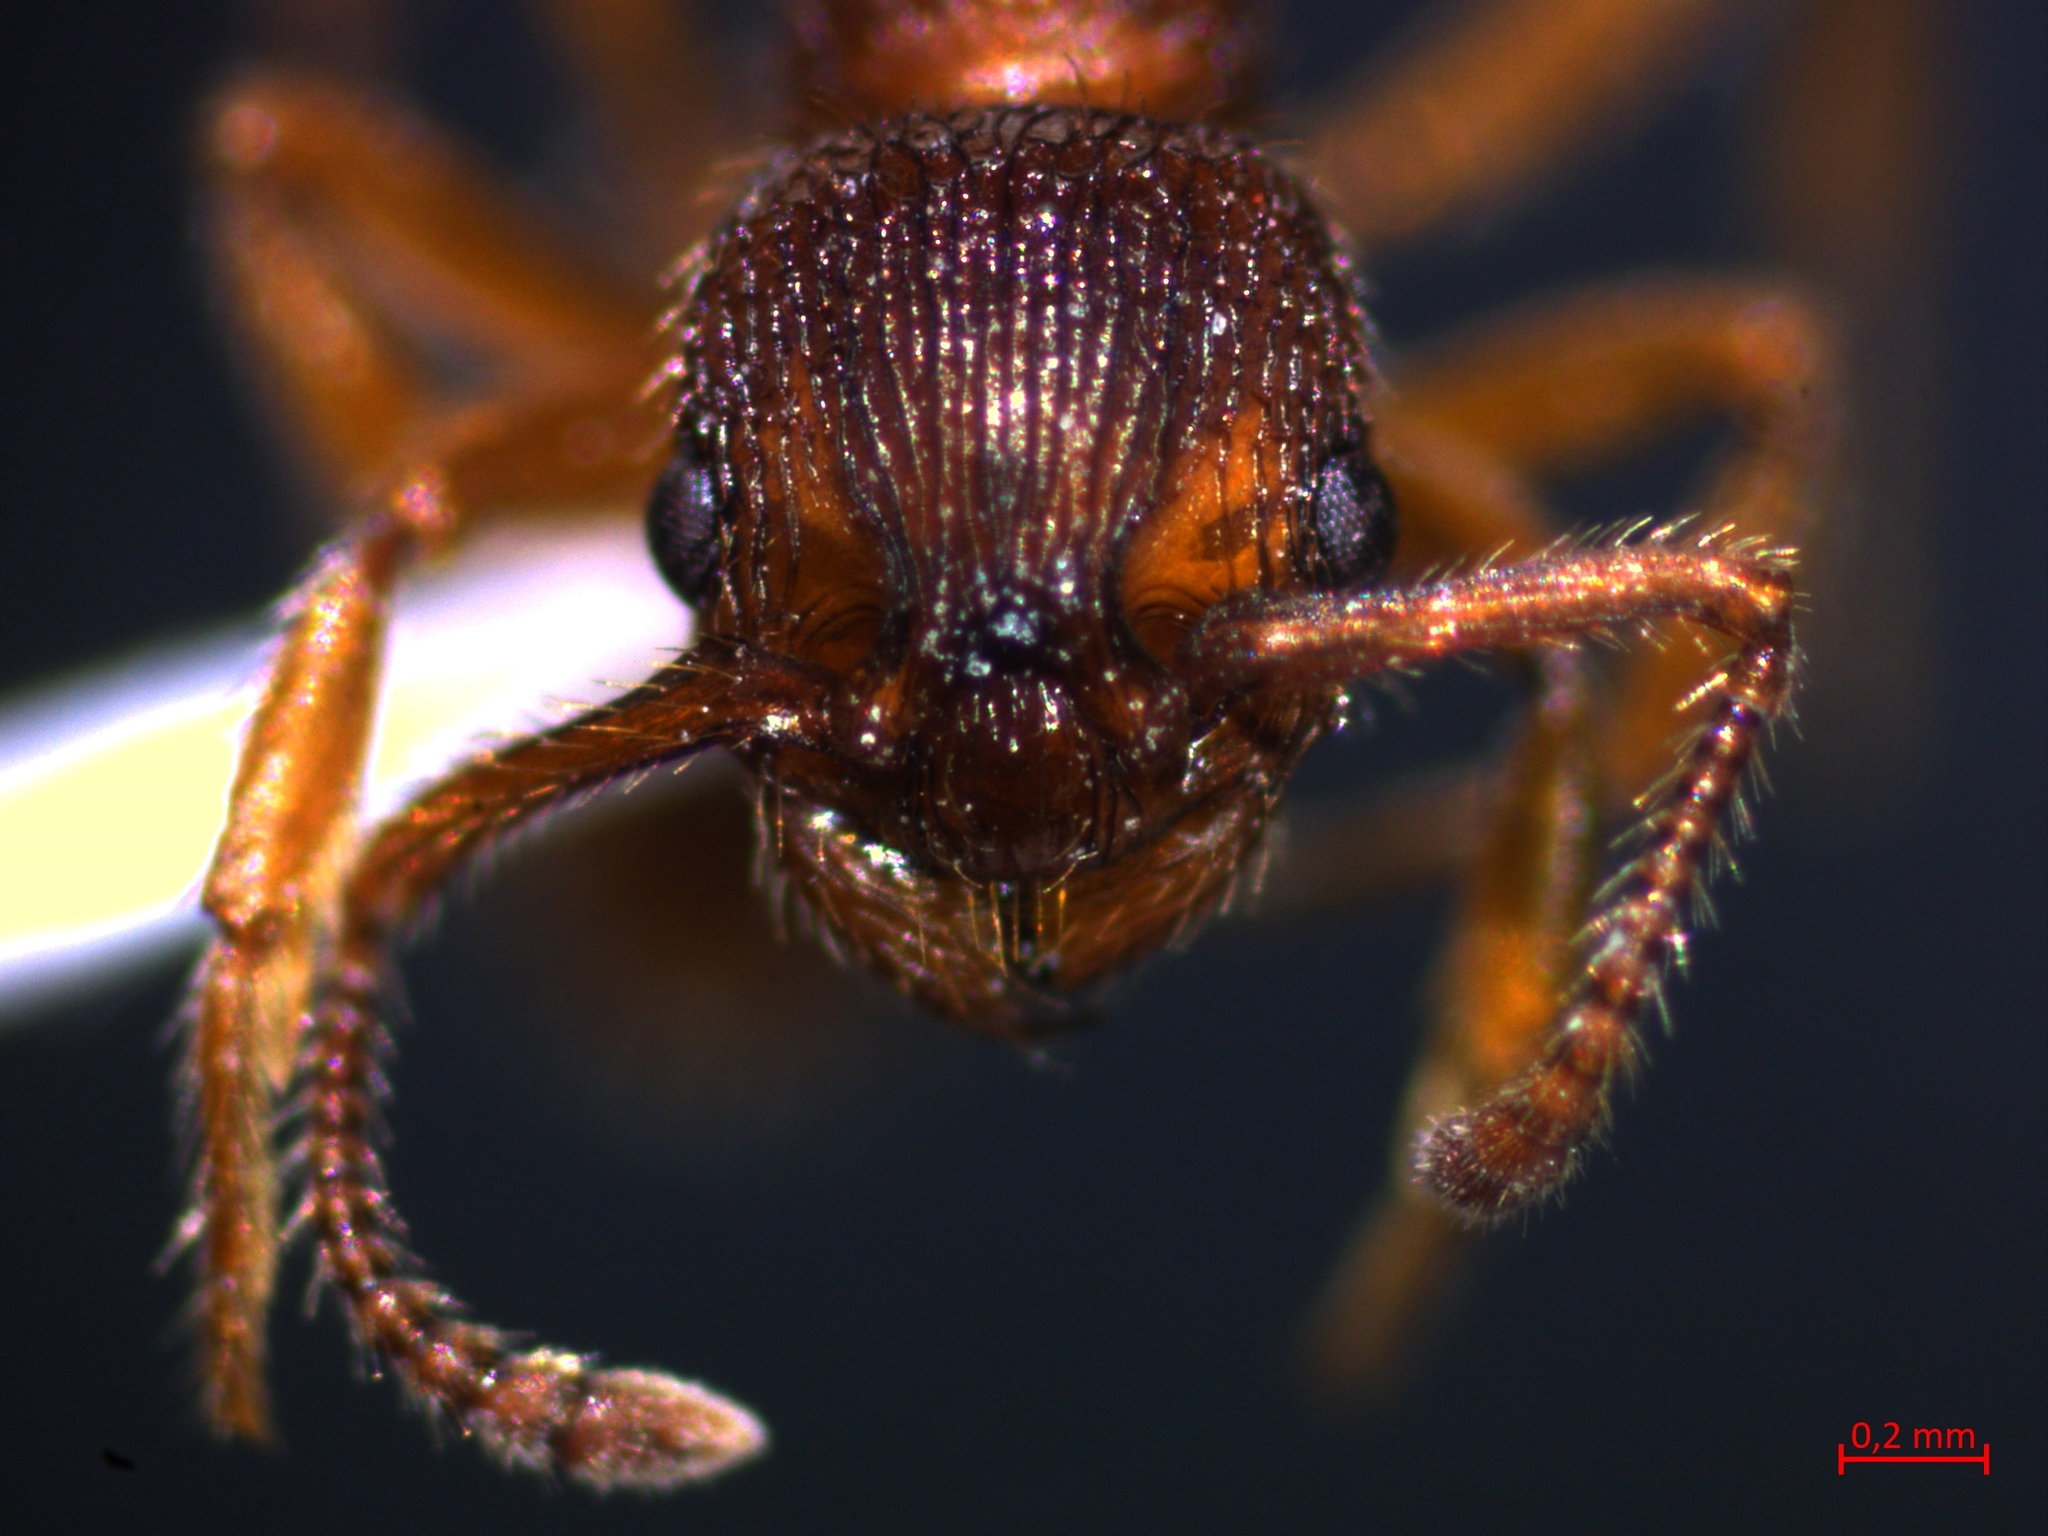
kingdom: Animalia
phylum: Arthropoda
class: Insecta
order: Hymenoptera
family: Formicidae
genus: Myrmica
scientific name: Myrmica sabuleti
